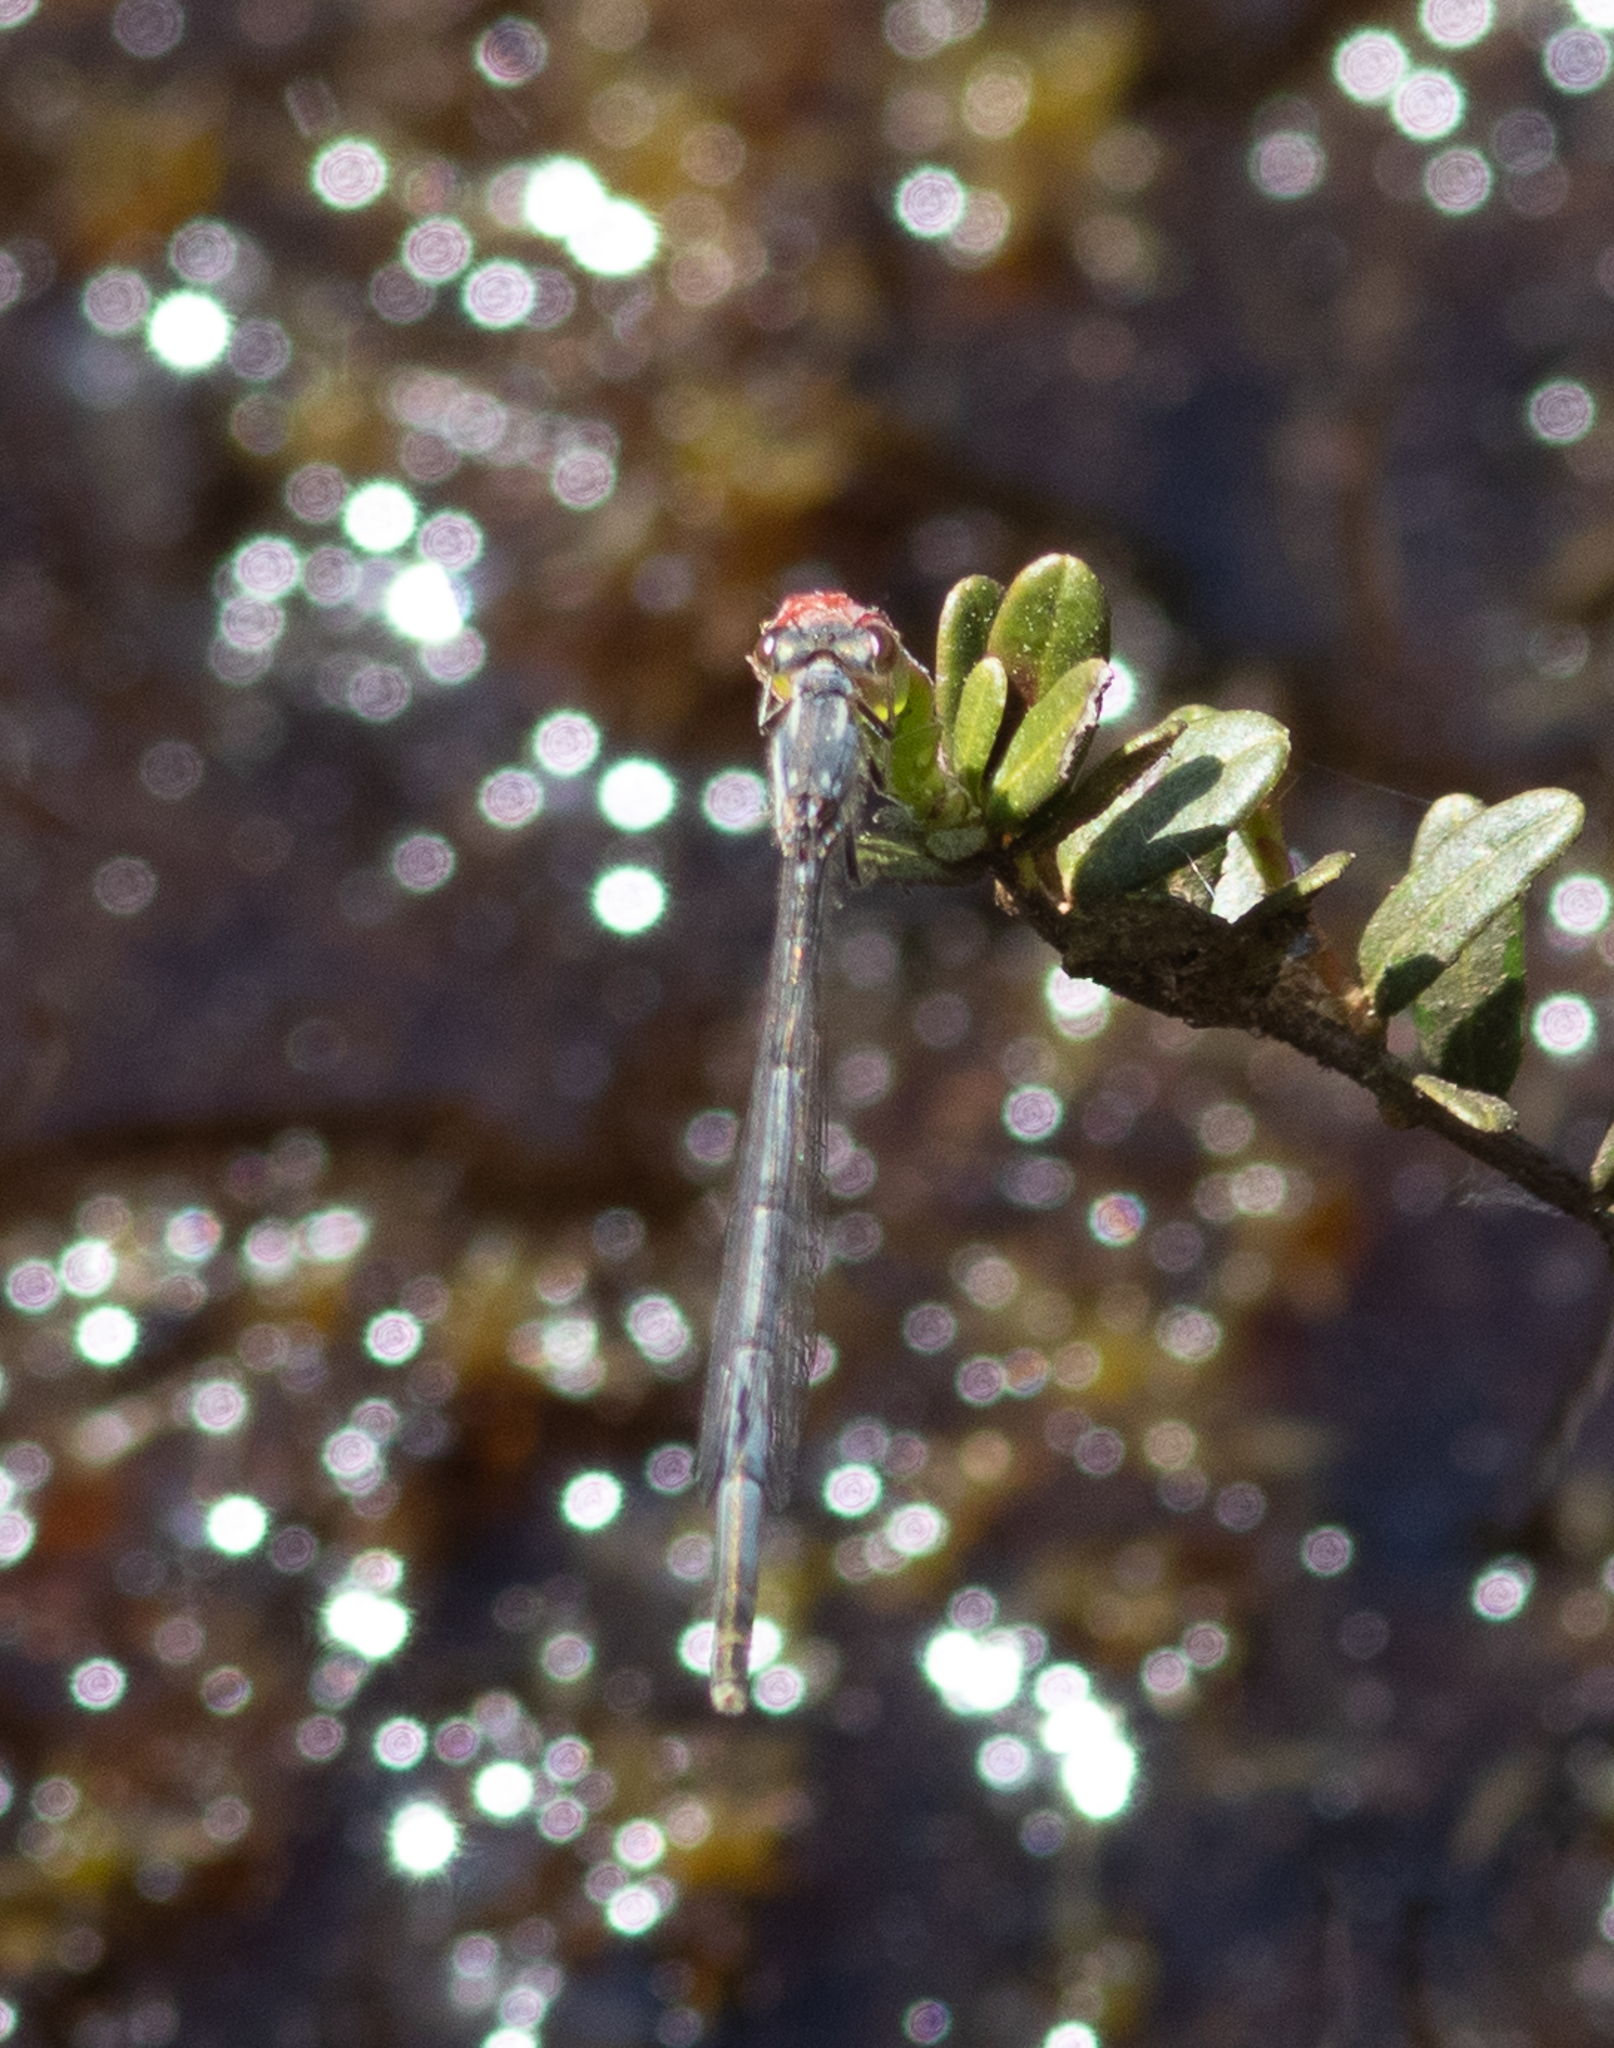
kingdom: Animalia
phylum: Arthropoda
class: Insecta
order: Odonata
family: Coenagrionidae
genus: Ischnura
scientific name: Ischnura posita
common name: Fragile forktail
